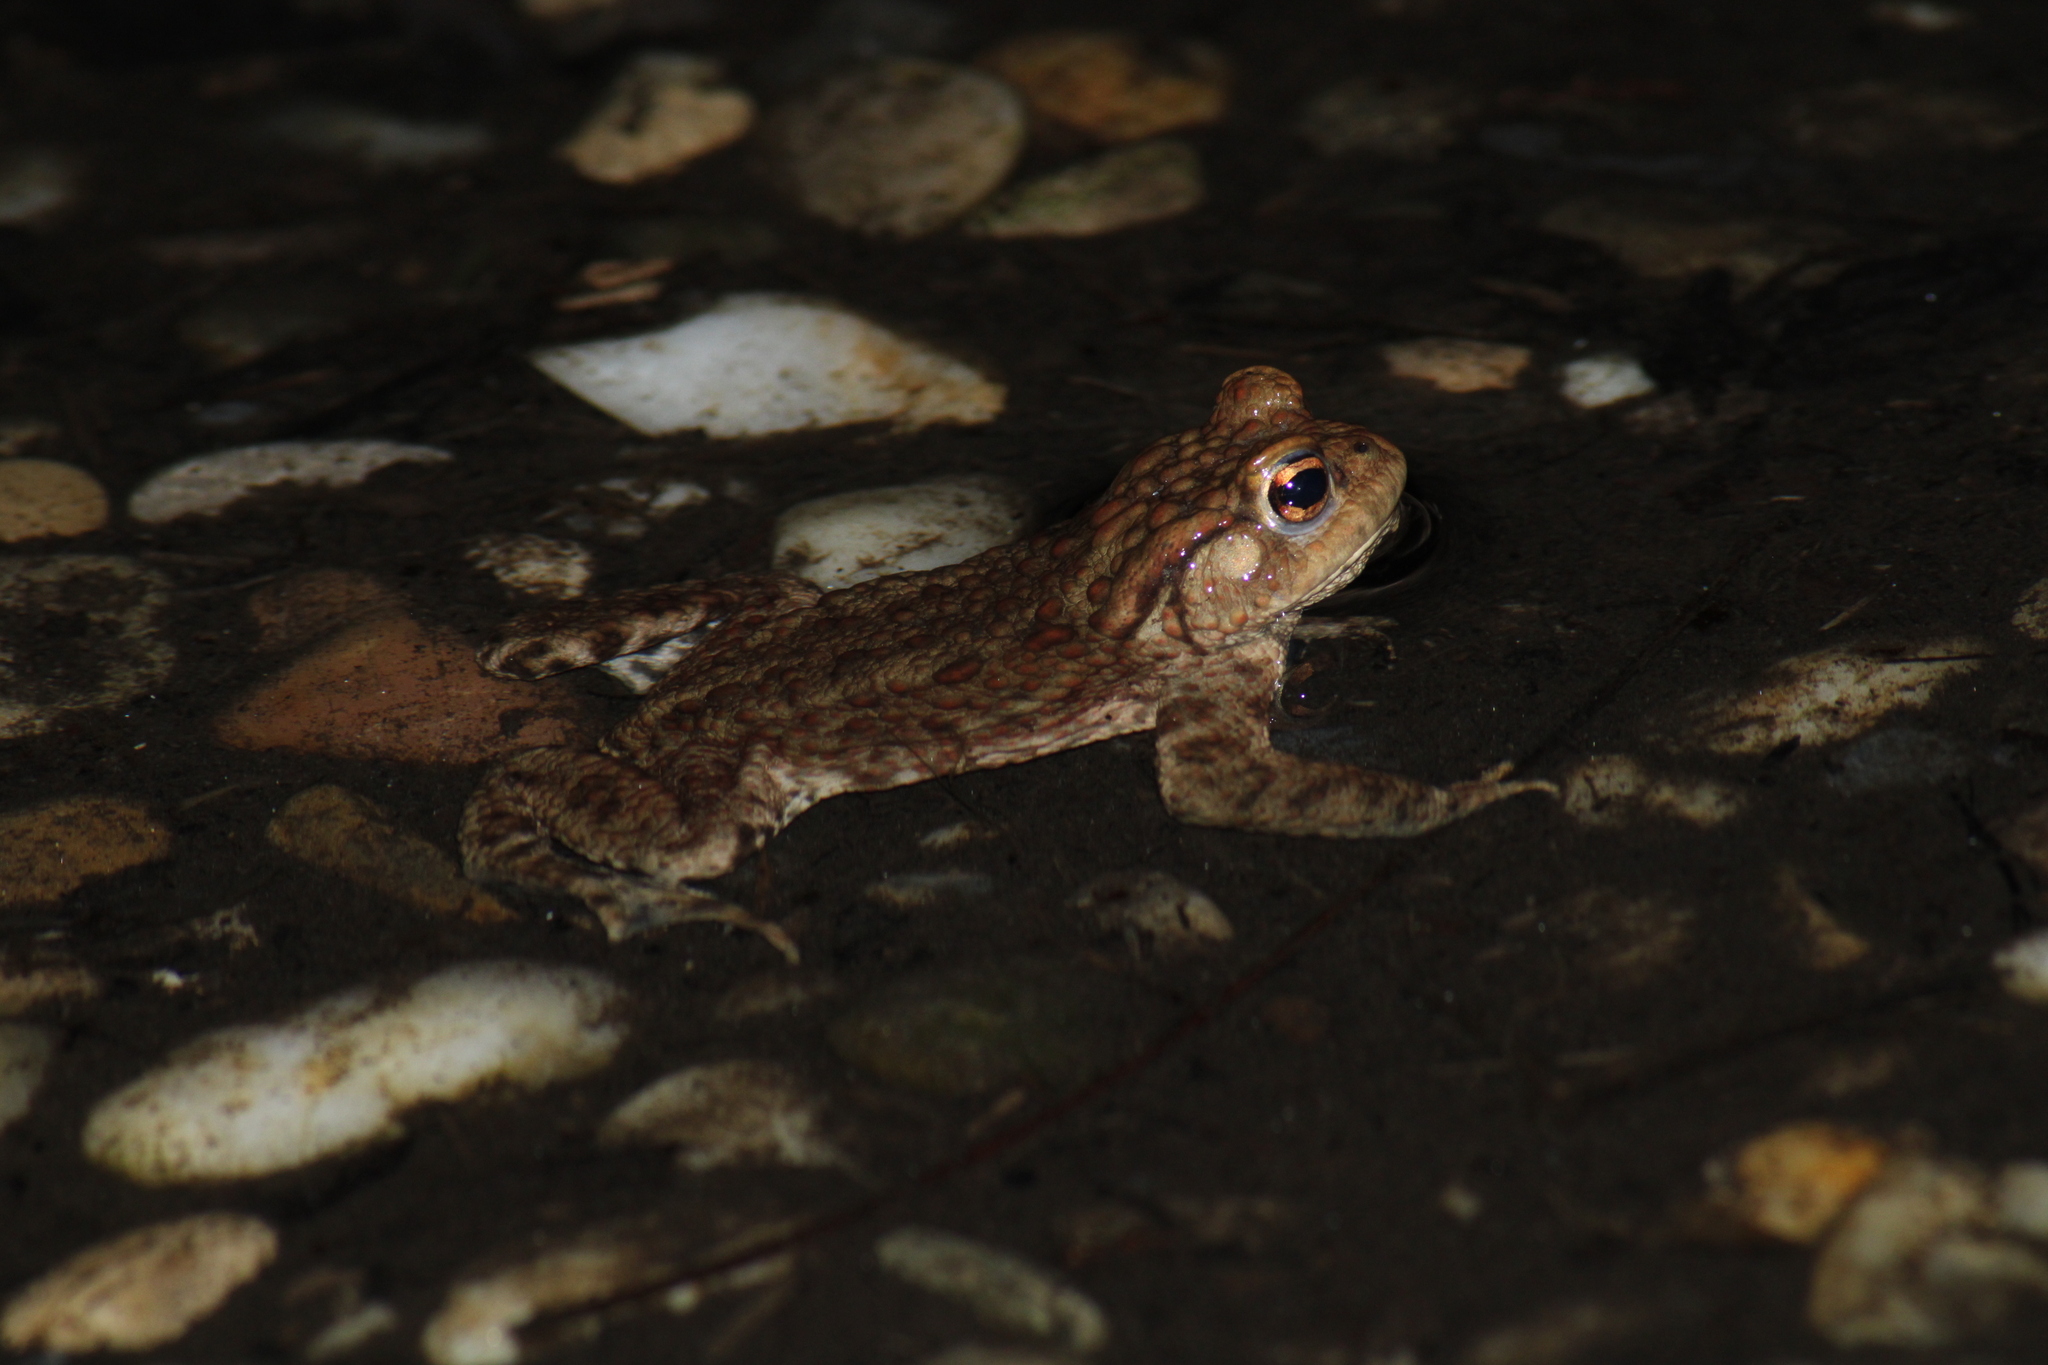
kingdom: Animalia
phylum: Chordata
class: Amphibia
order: Anura
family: Bufonidae
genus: Bufo
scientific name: Bufo bufo
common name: Common toad
